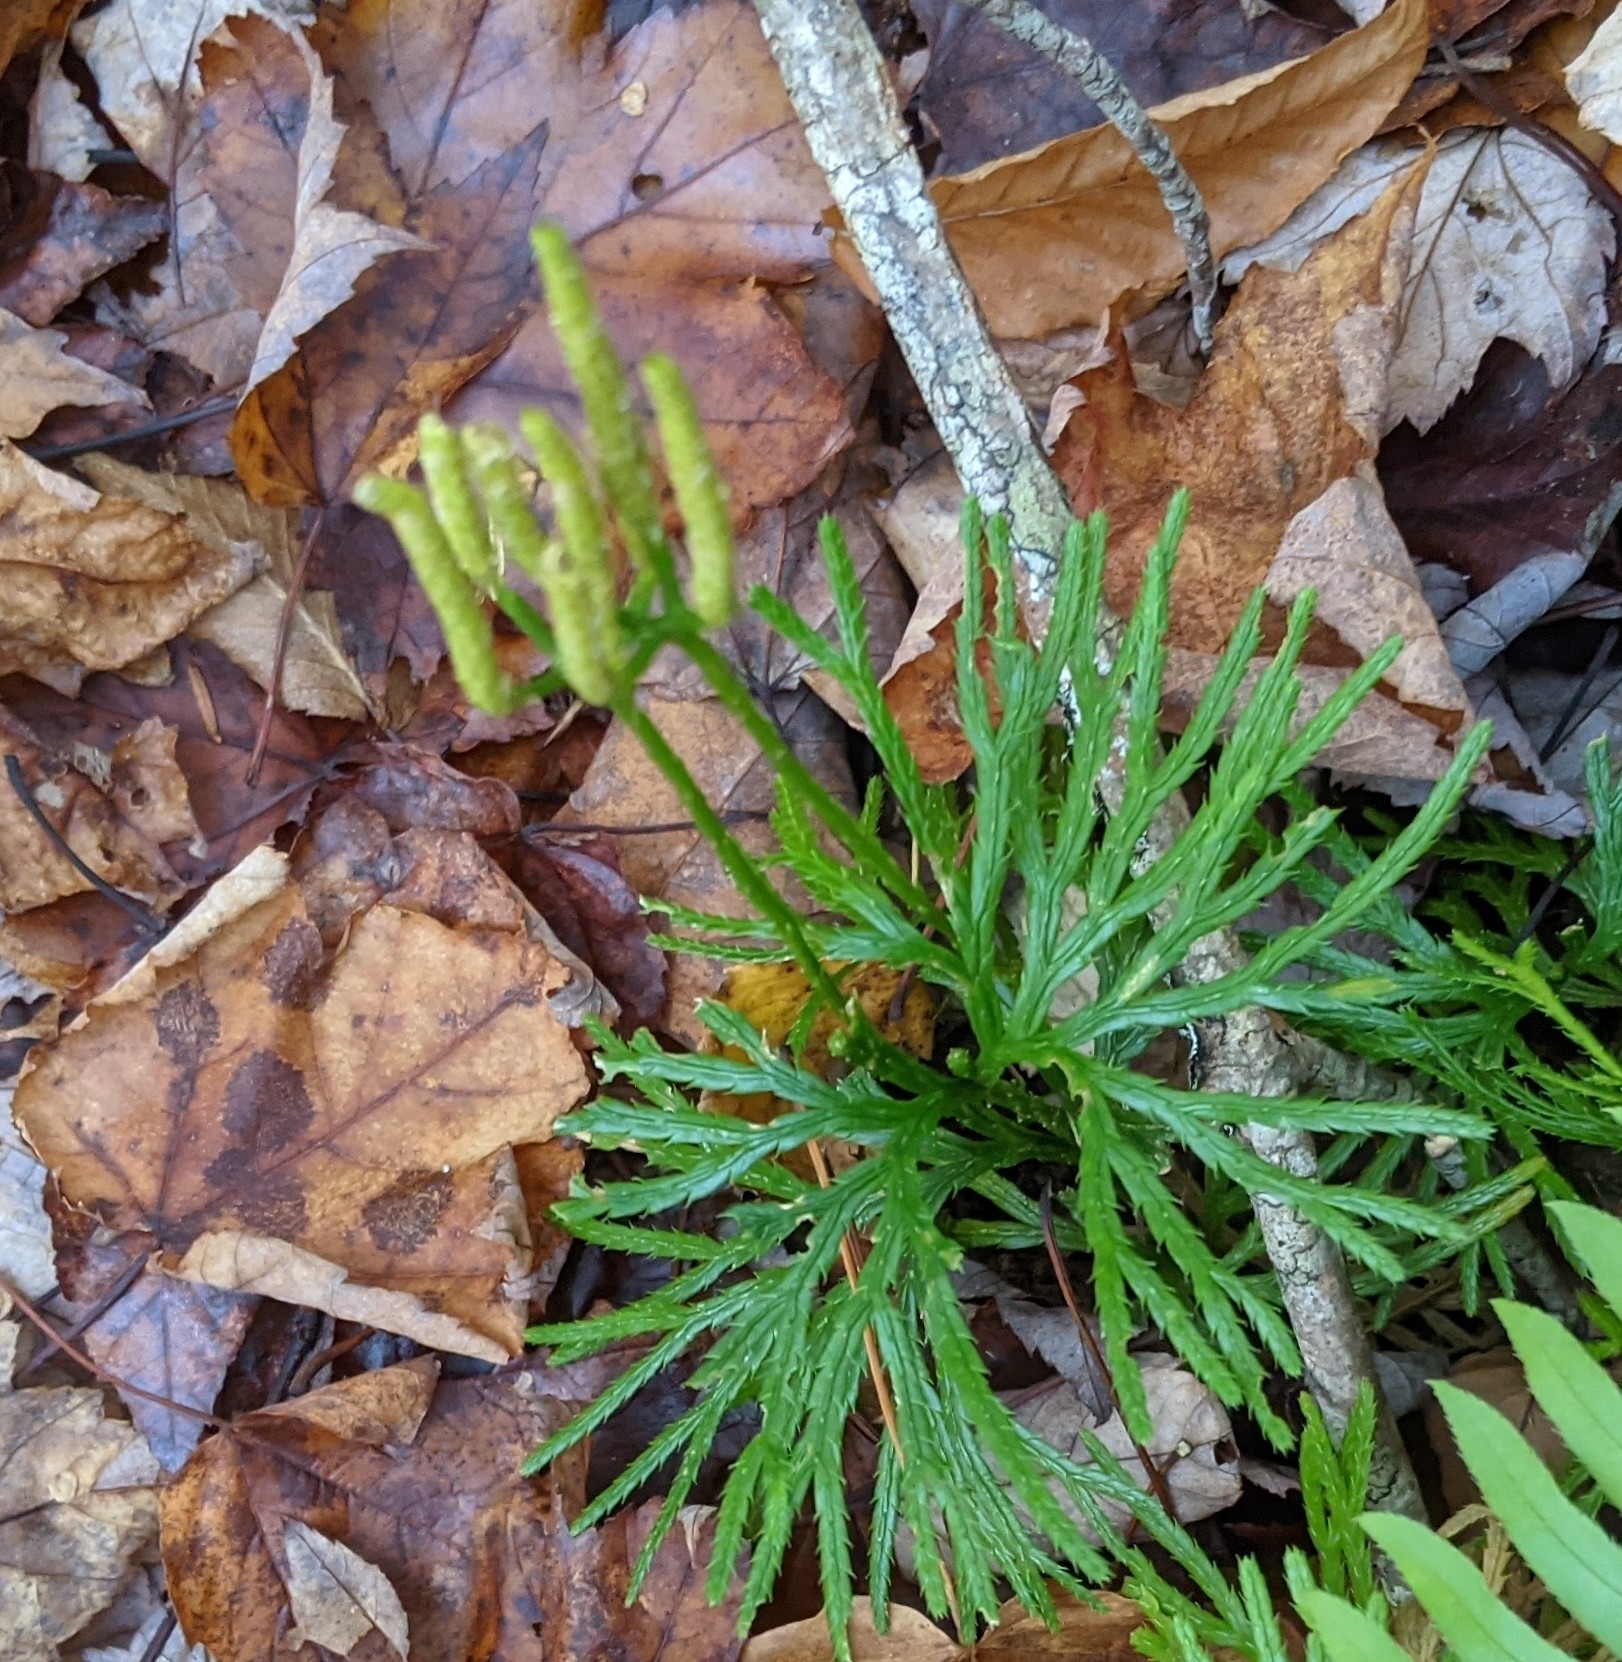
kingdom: Plantae
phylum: Tracheophyta
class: Lycopodiopsida
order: Lycopodiales
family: Lycopodiaceae
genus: Diphasiastrum
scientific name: Diphasiastrum digitatum
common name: Southern running-pine
